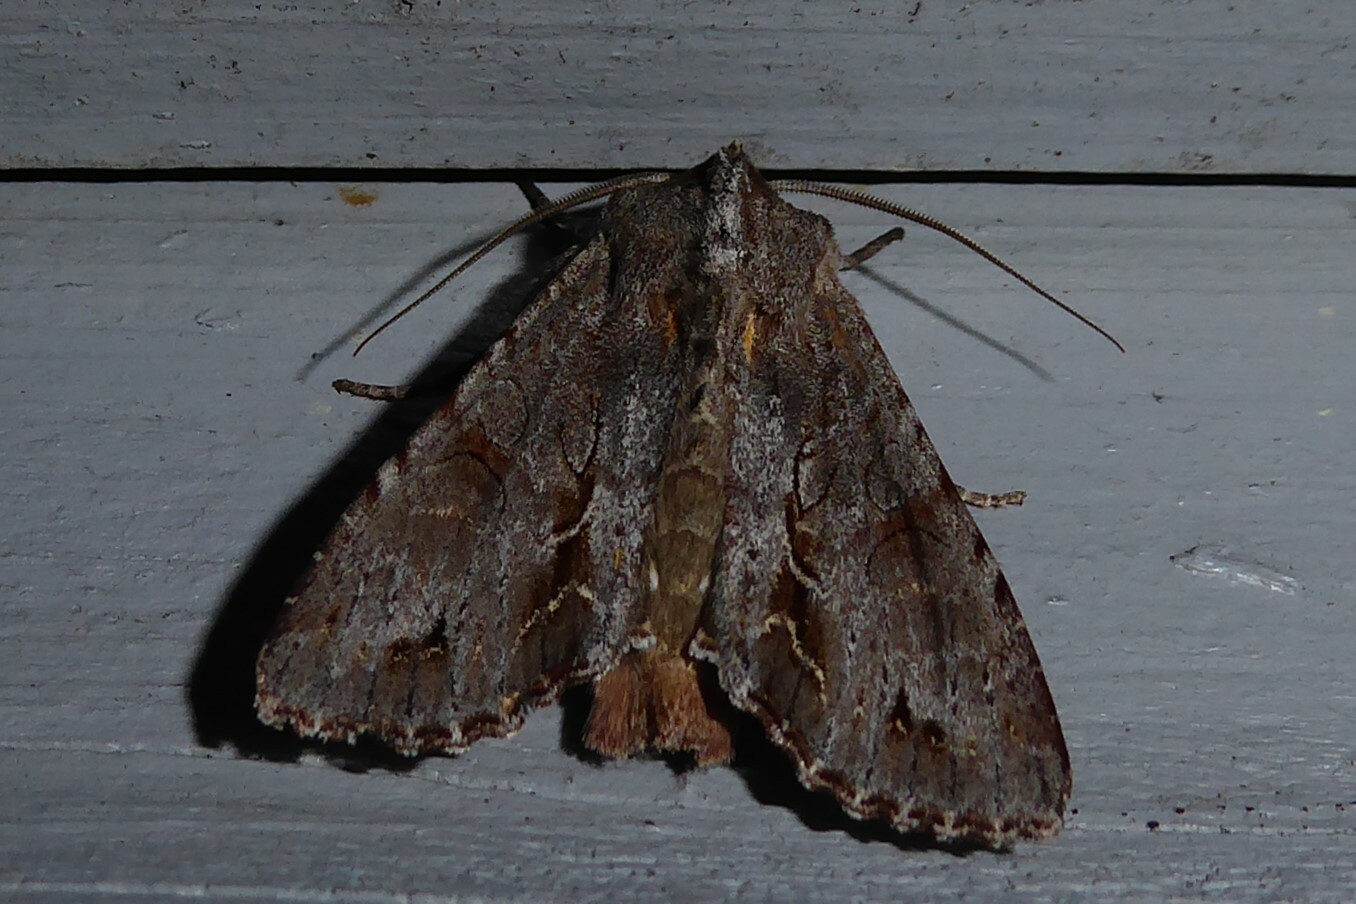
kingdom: Animalia
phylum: Arthropoda
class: Insecta
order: Lepidoptera
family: Noctuidae
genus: Ichneutica
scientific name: Ichneutica
